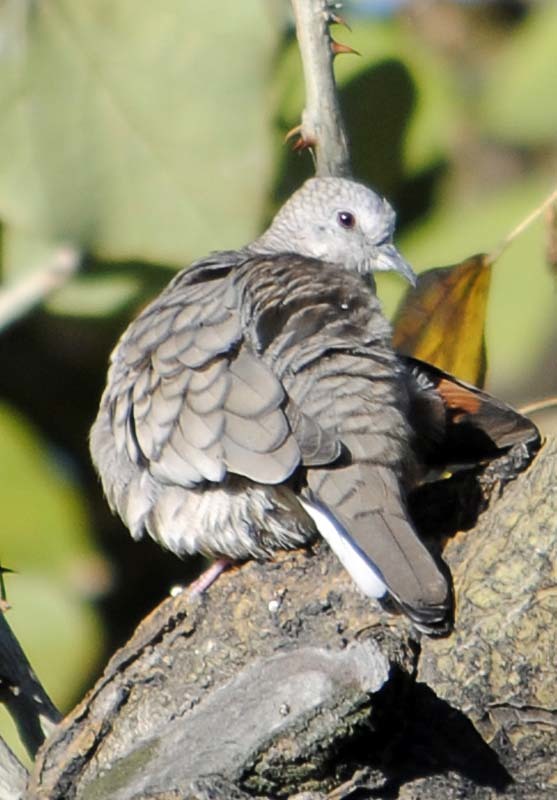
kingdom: Animalia
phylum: Chordata
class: Aves
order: Columbiformes
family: Columbidae
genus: Columbina
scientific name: Columbina inca
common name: Inca dove
